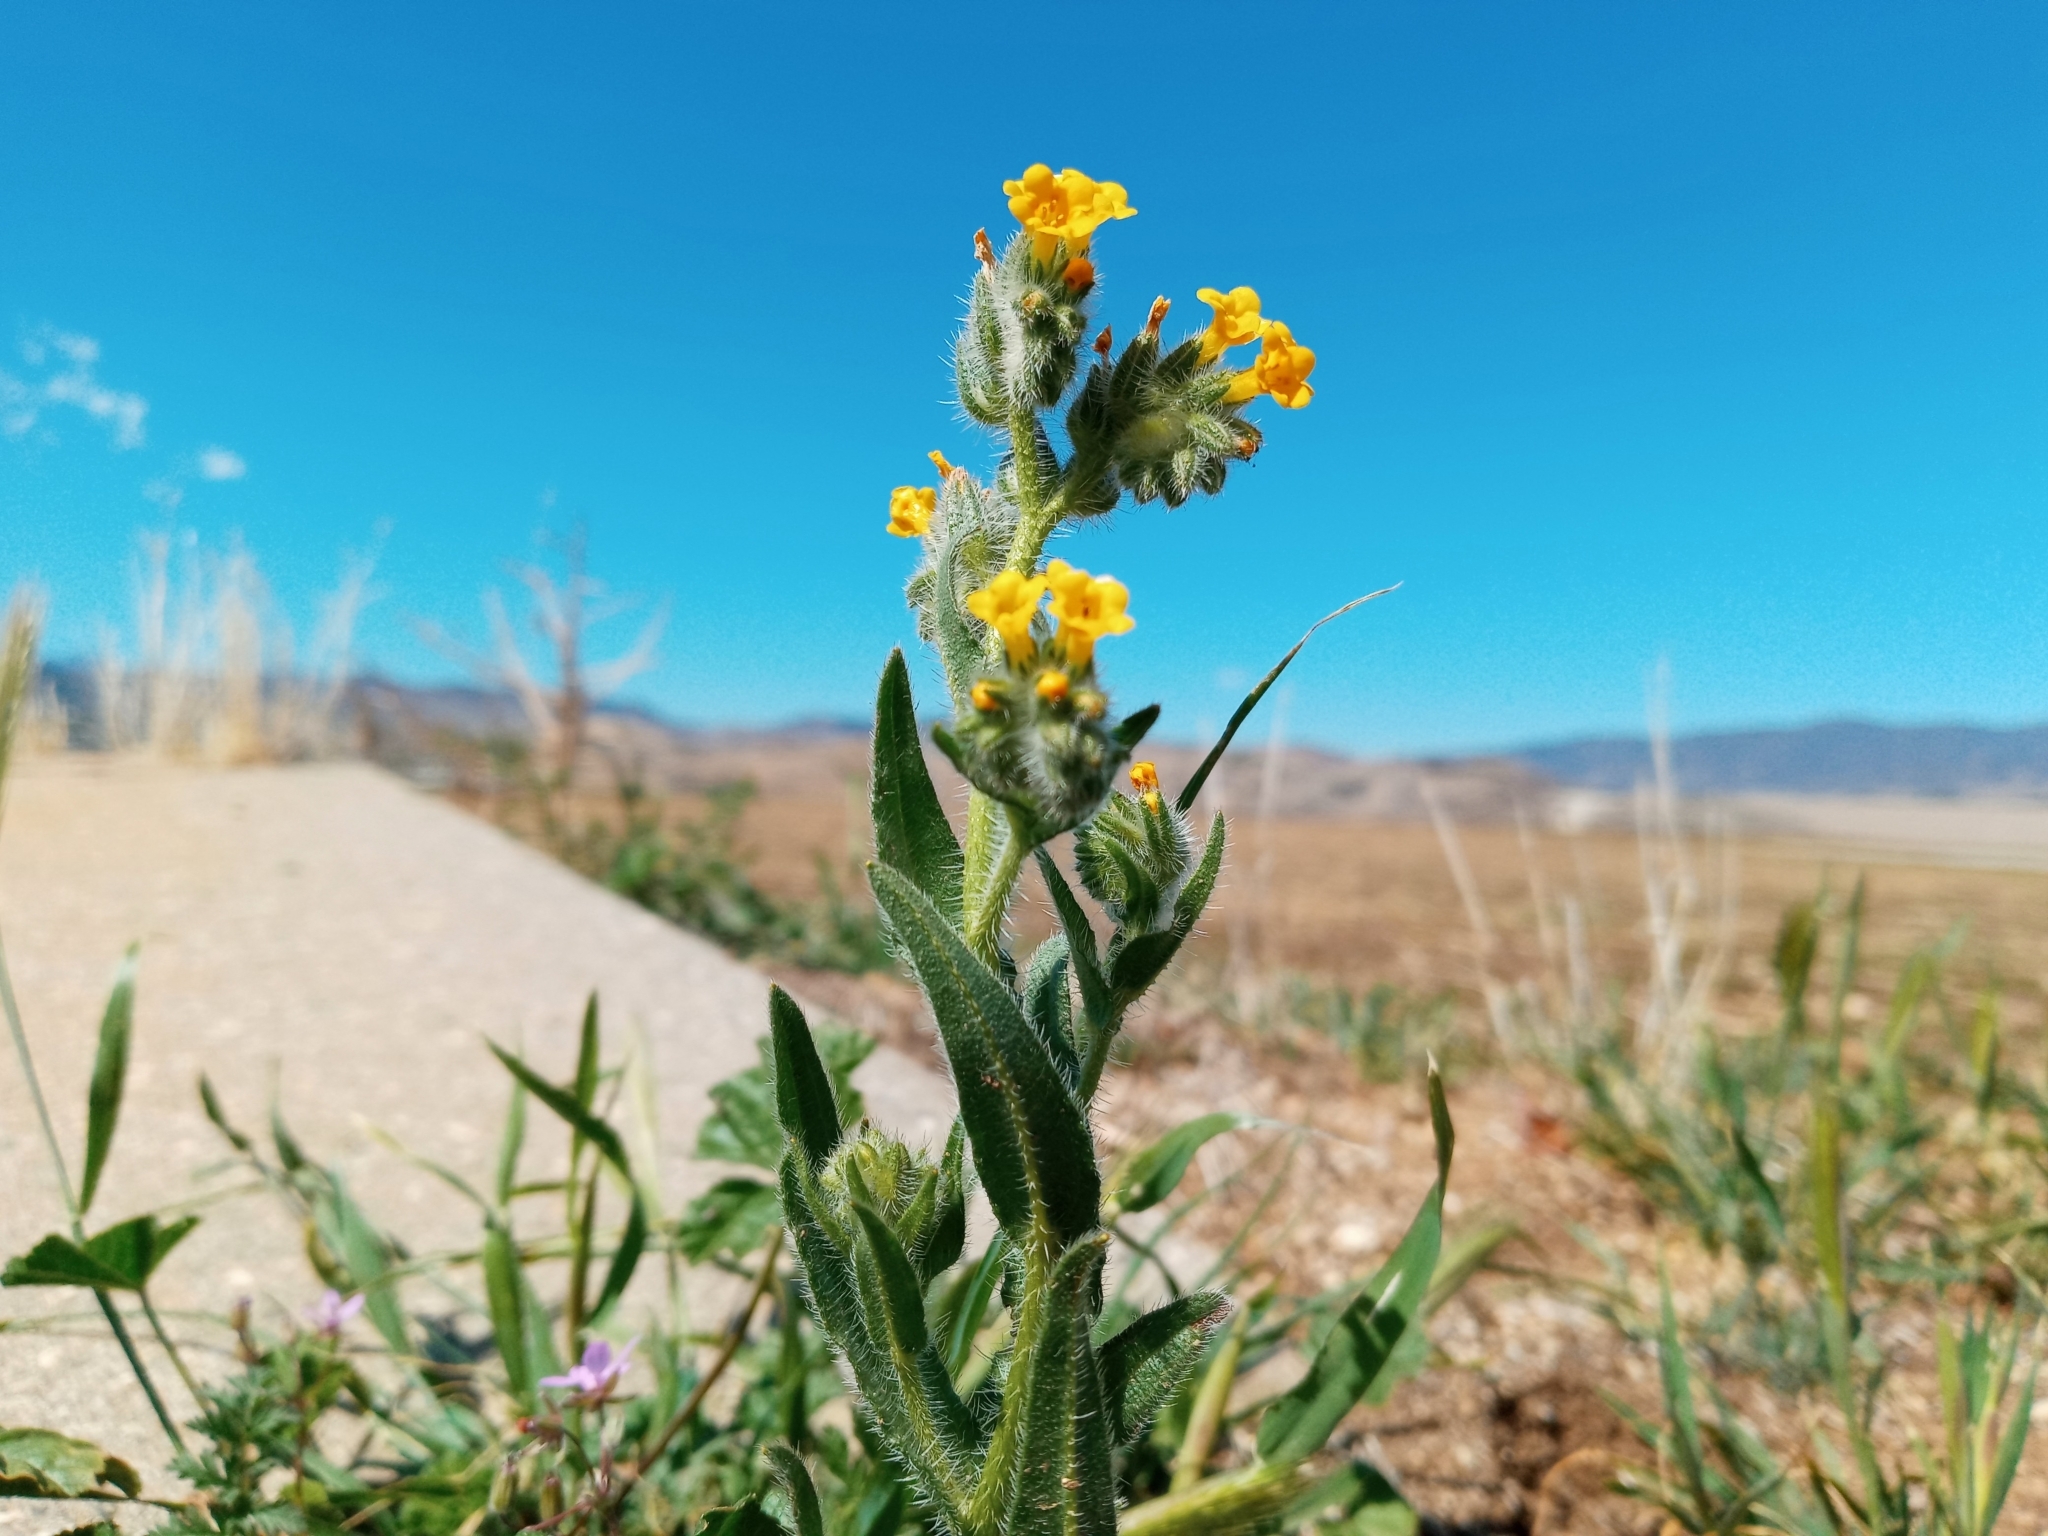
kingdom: Plantae
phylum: Tracheophyta
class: Magnoliopsida
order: Boraginales
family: Boraginaceae
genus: Amsinckia
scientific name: Amsinckia menziesii
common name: Menzies' fiddleneck
